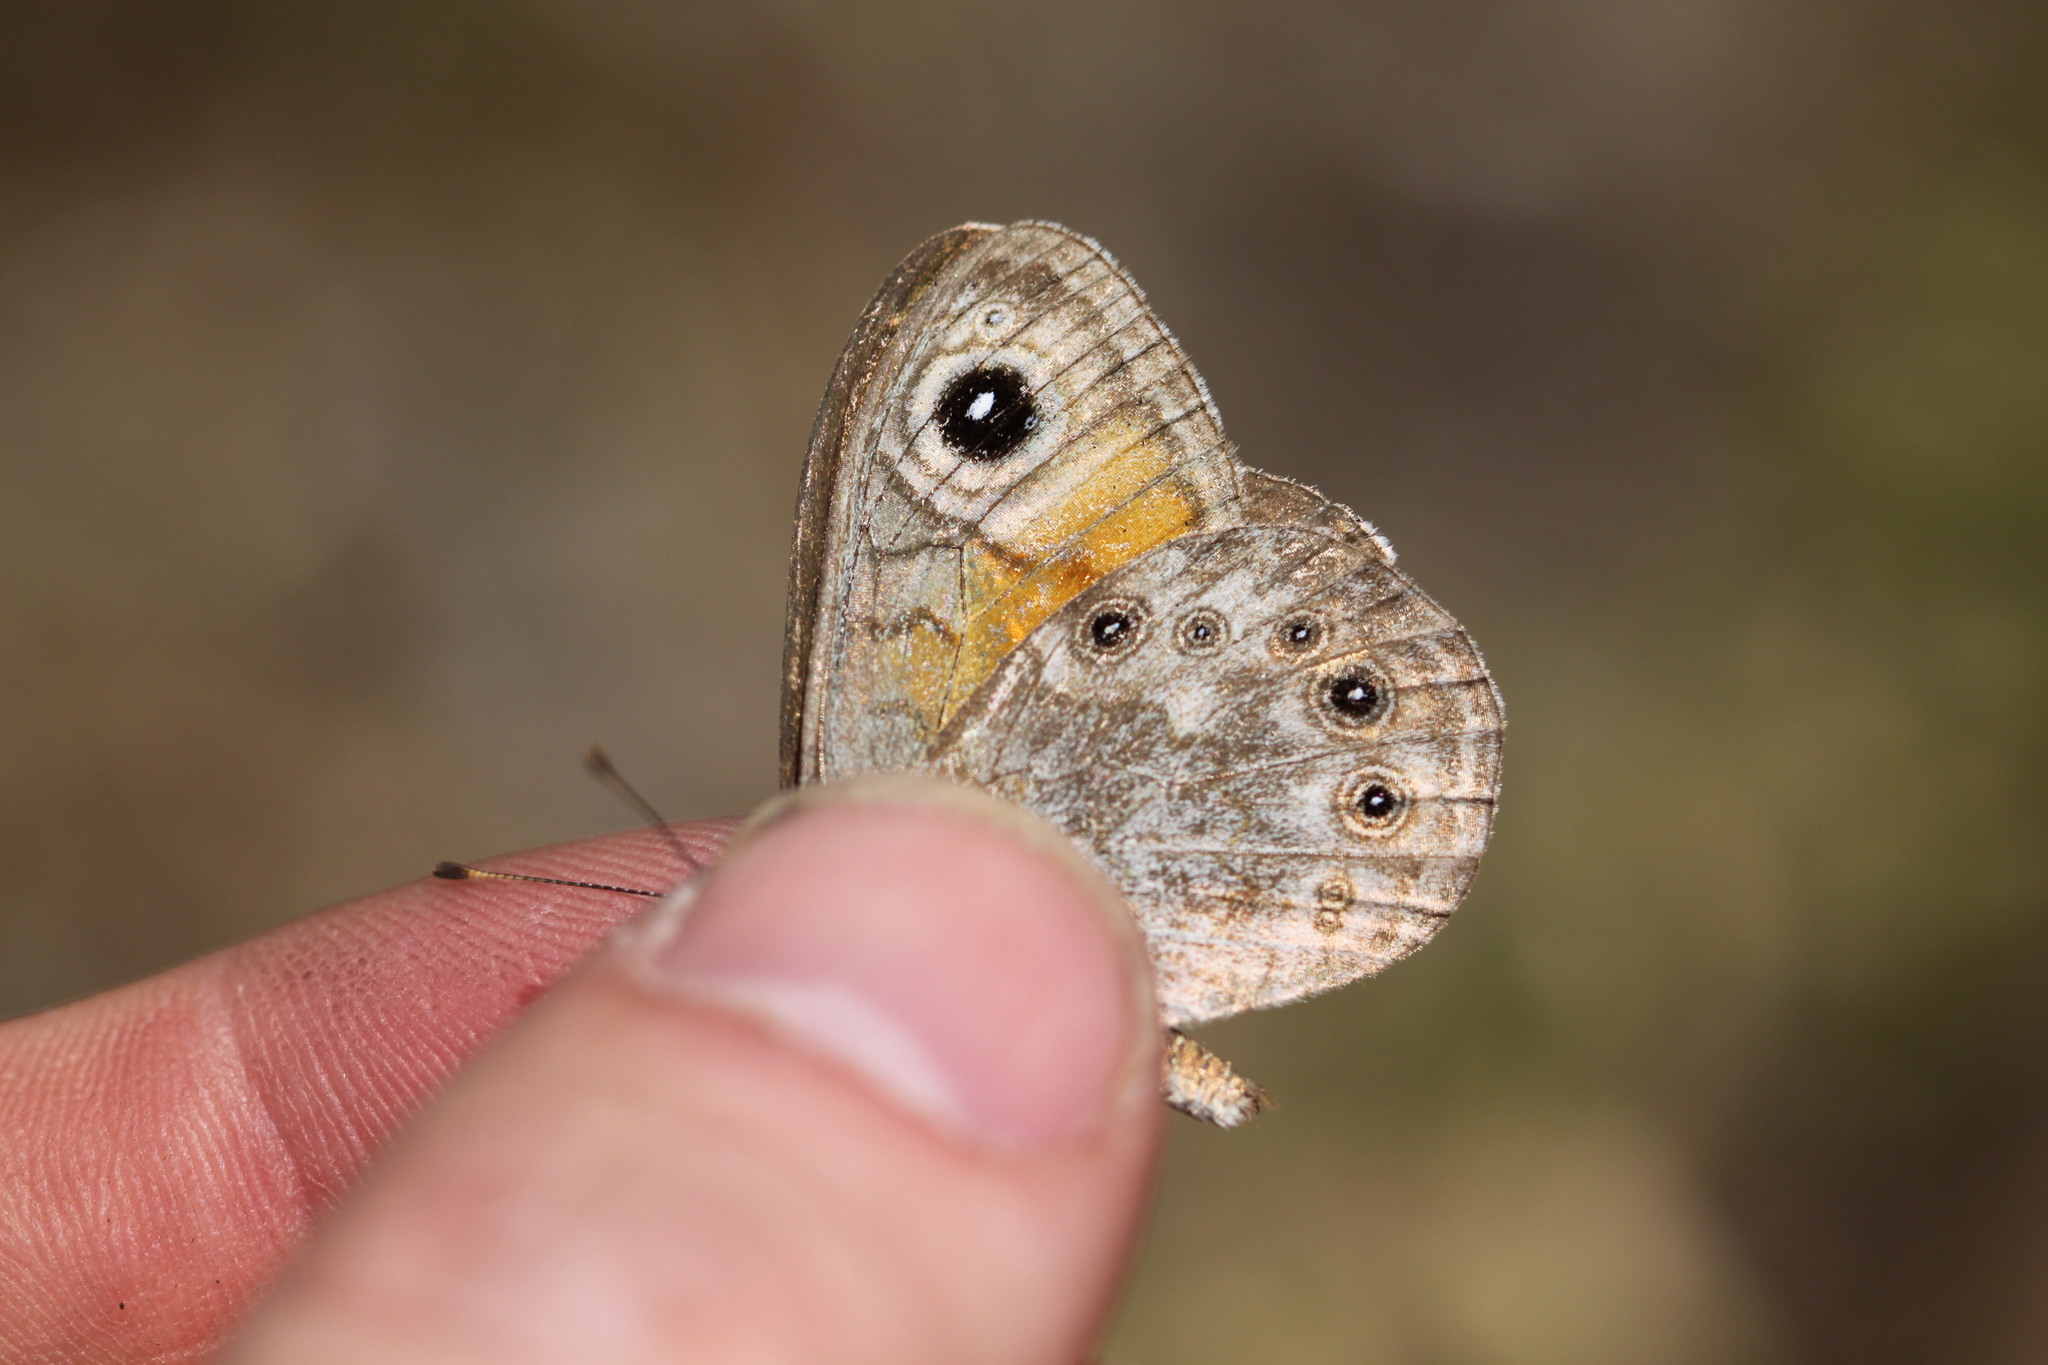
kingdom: Animalia
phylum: Arthropoda
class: Insecta
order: Lepidoptera
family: Nymphalidae
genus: Pararge
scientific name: Pararge Lasiommata maera
